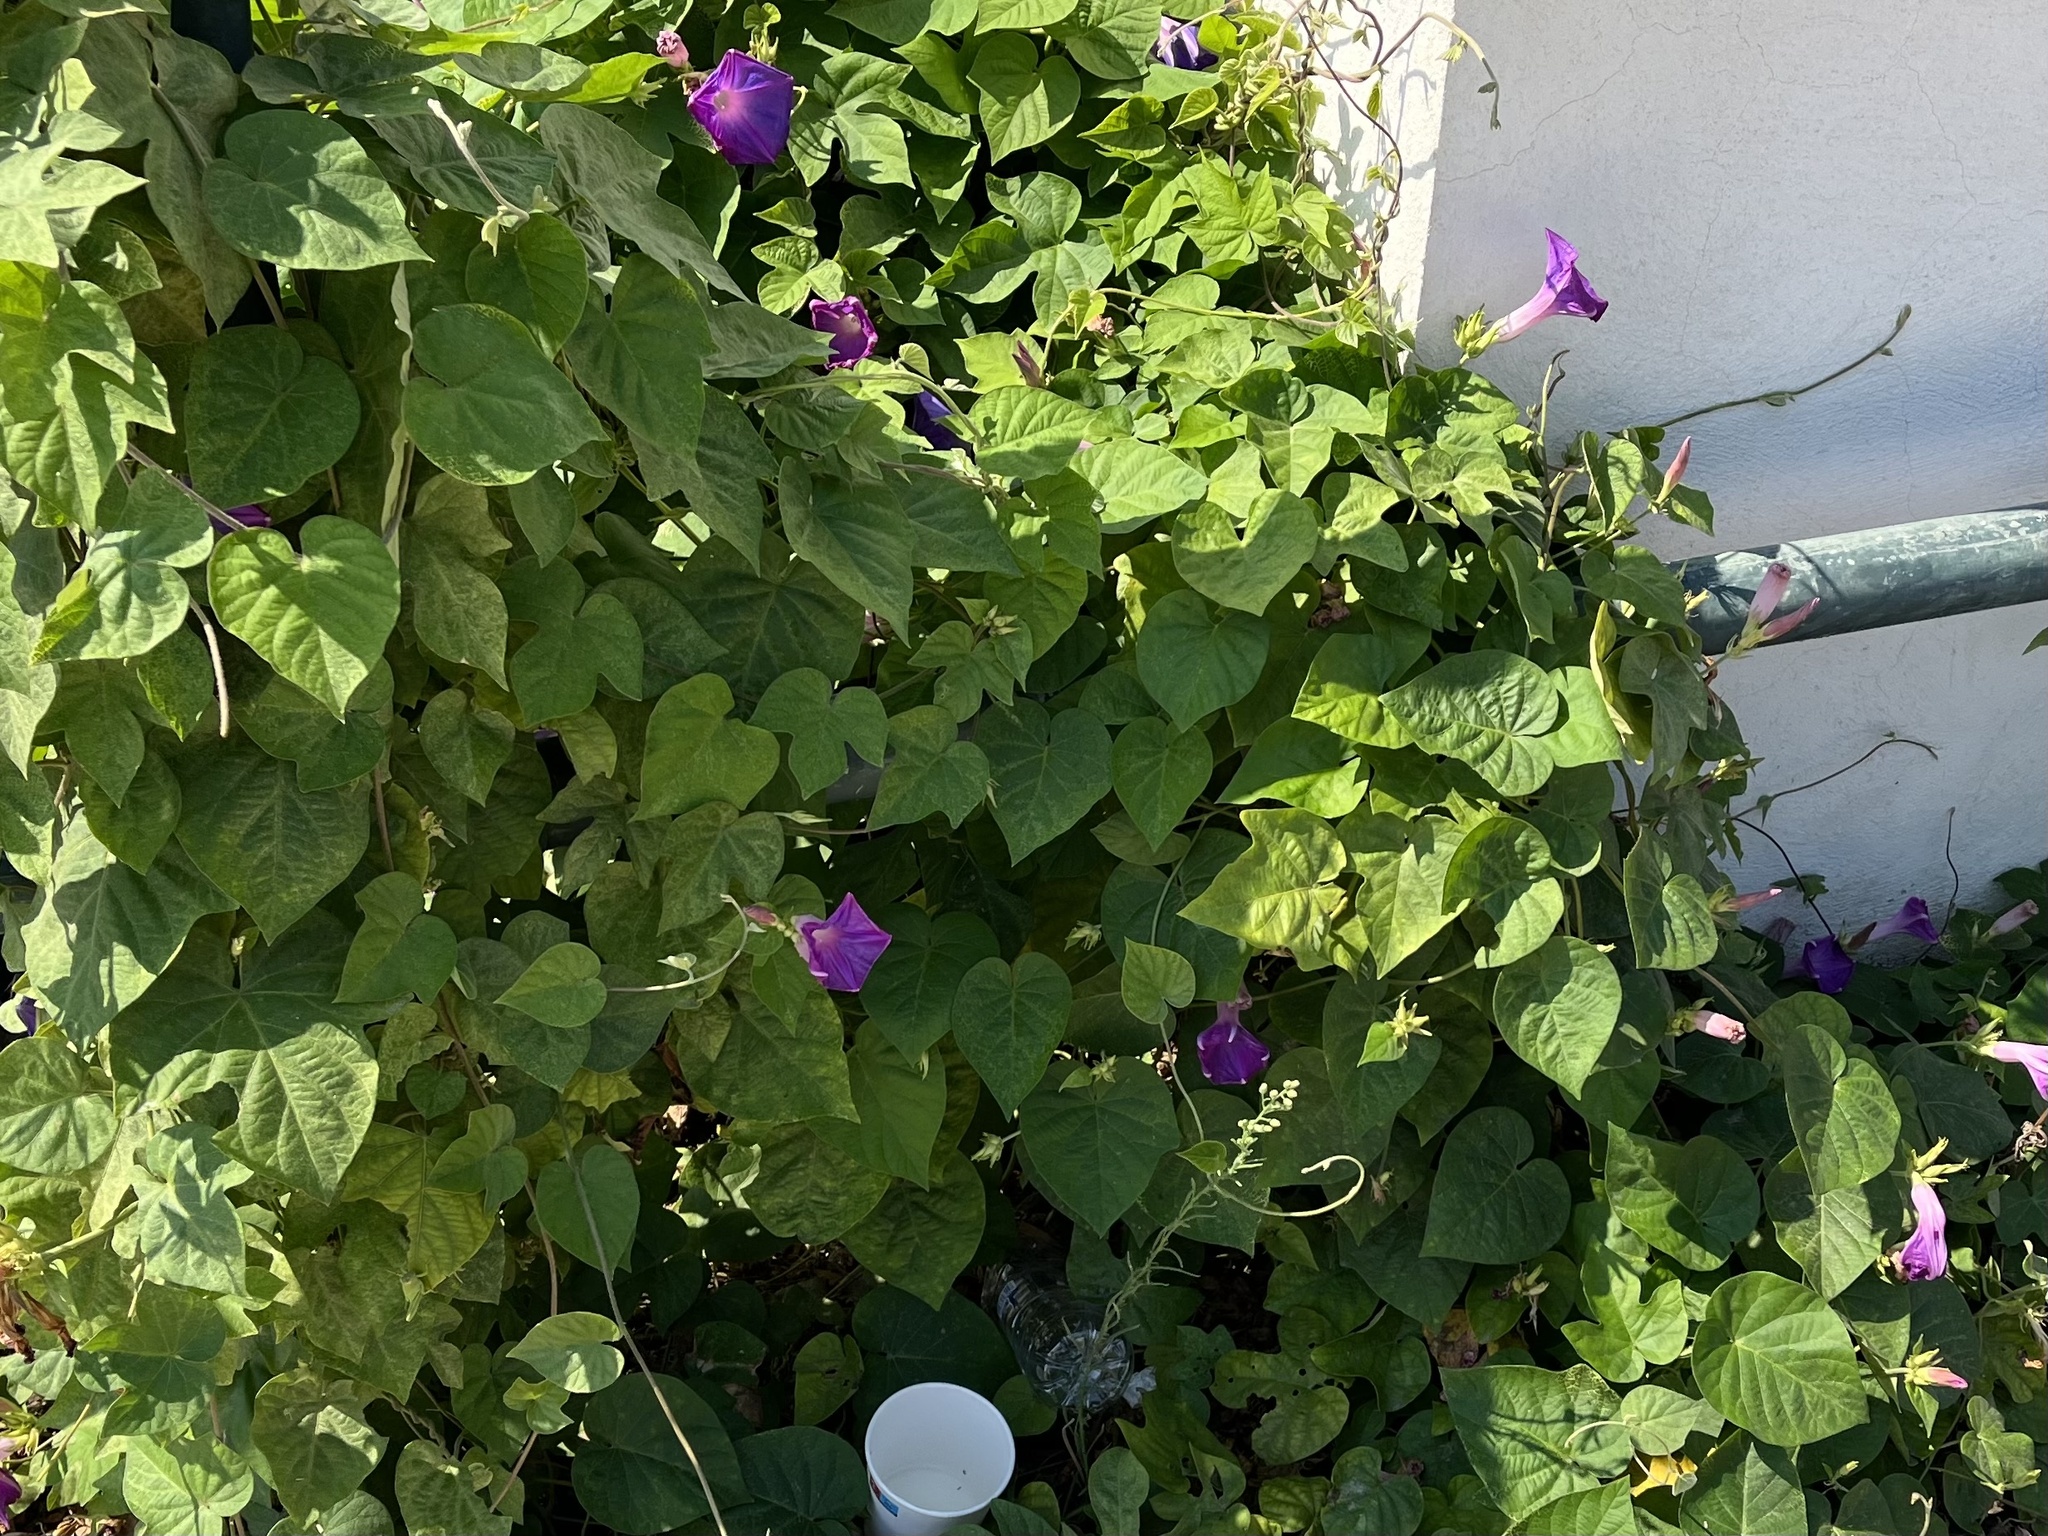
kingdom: Plantae
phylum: Tracheophyta
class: Magnoliopsida
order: Solanales
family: Convolvulaceae
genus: Ipomoea
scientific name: Ipomoea indica
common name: Blue dawnflower
